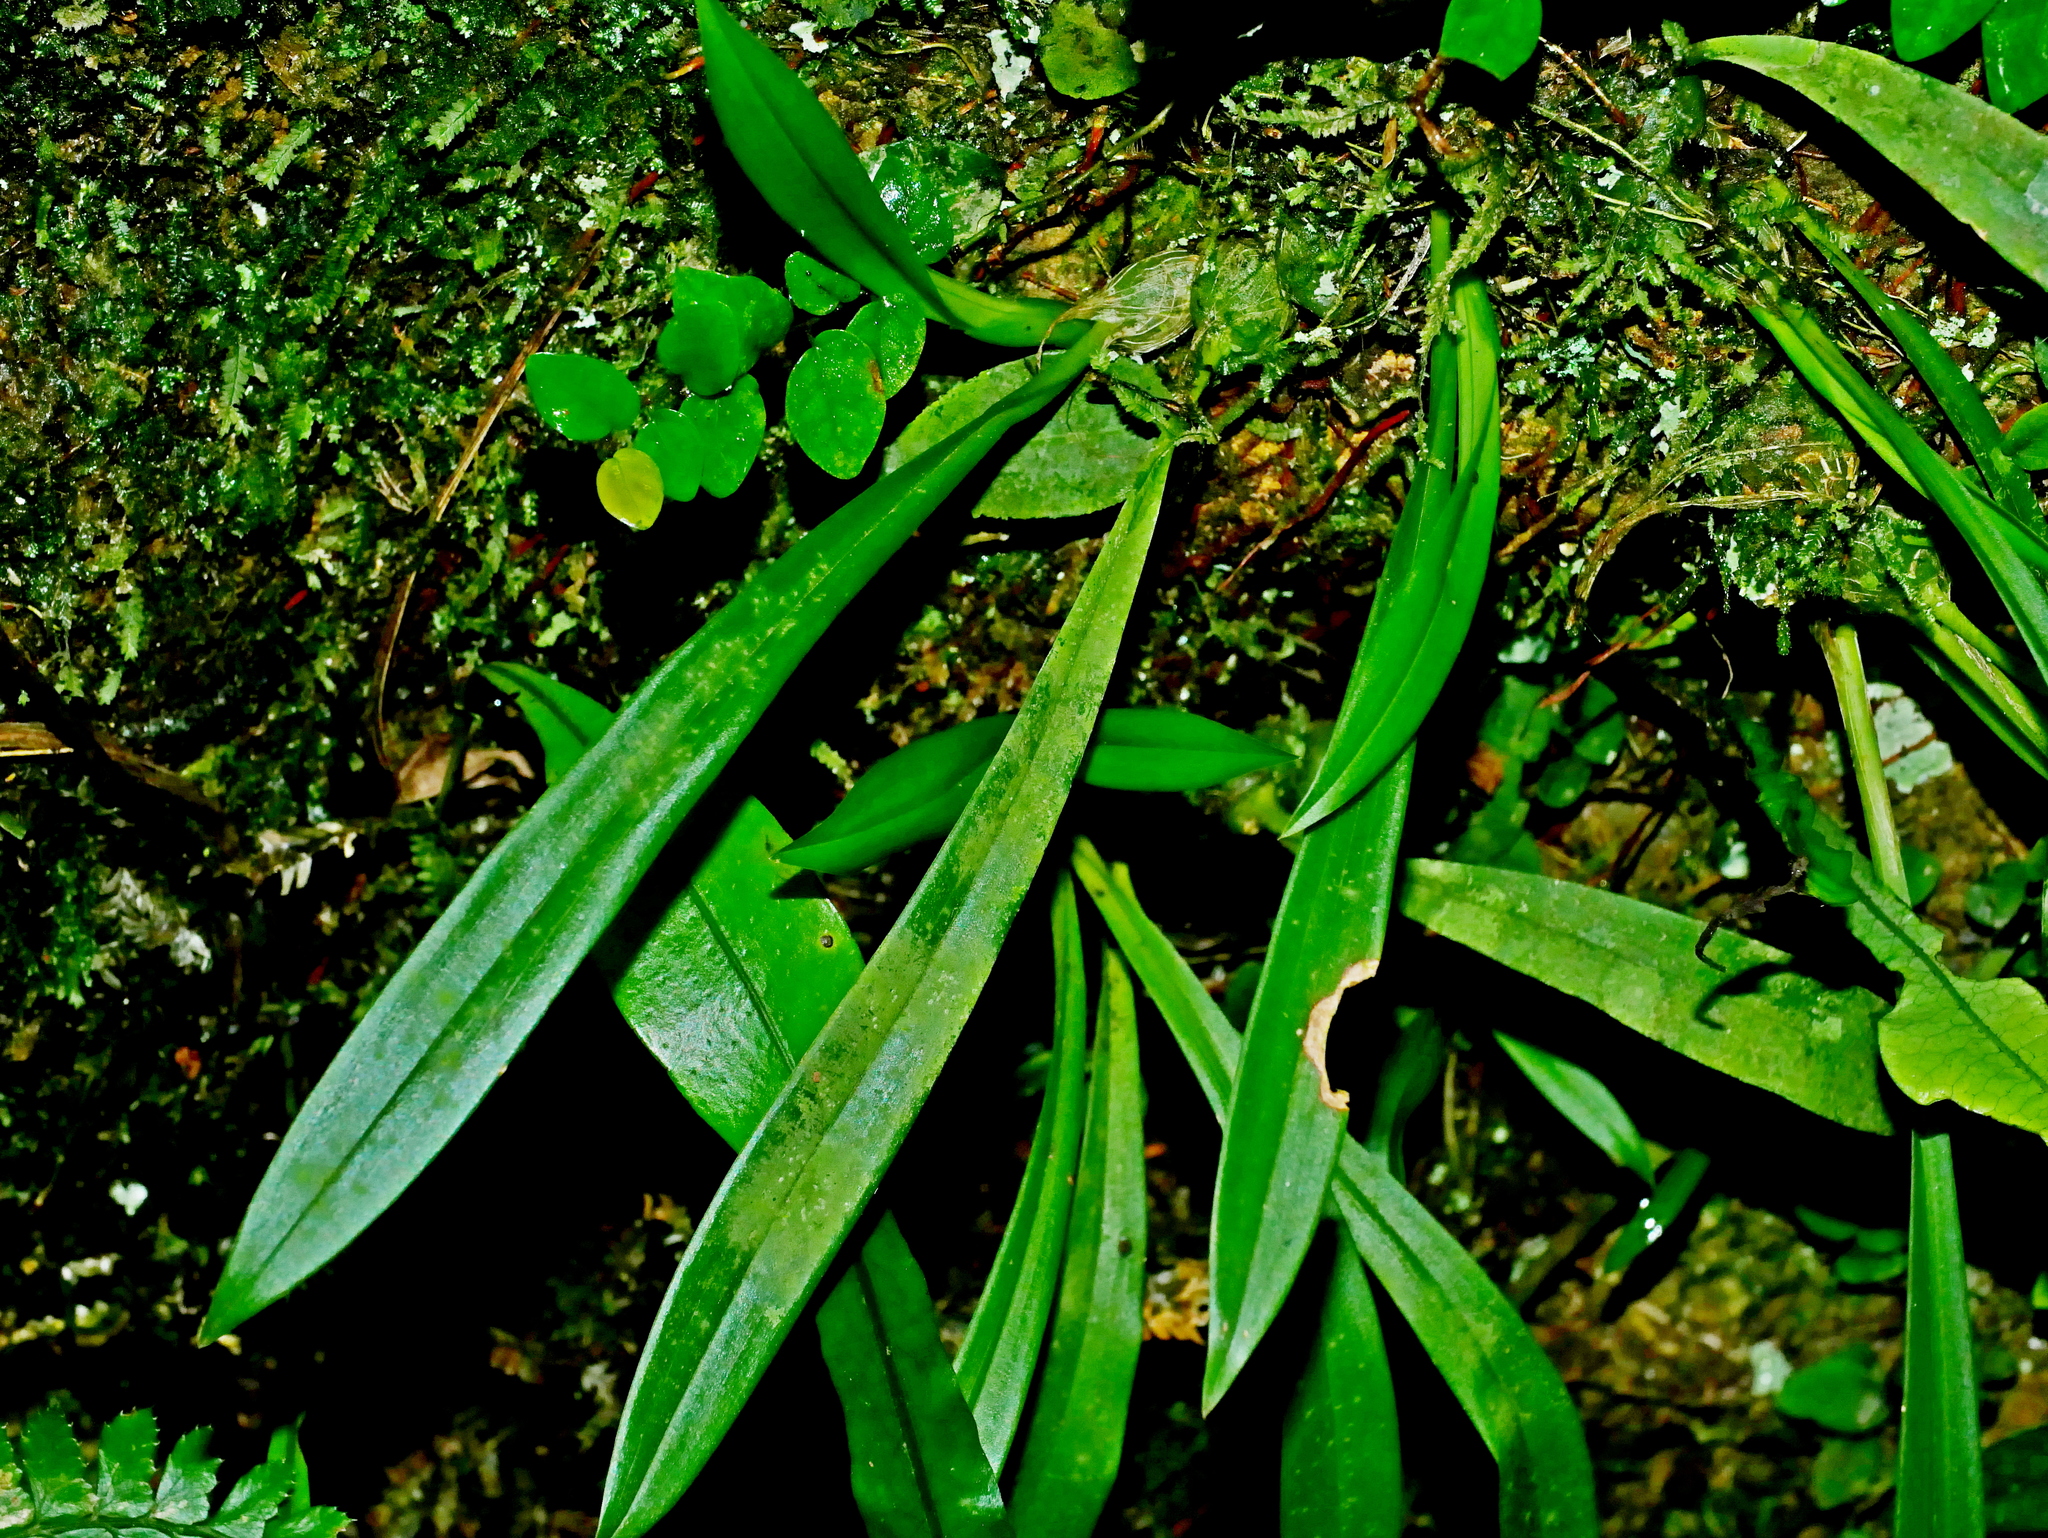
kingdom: Plantae
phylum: Tracheophyta
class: Liliopsida
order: Asparagales
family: Orchidaceae
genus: Liparis
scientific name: Liparis nakaharae
